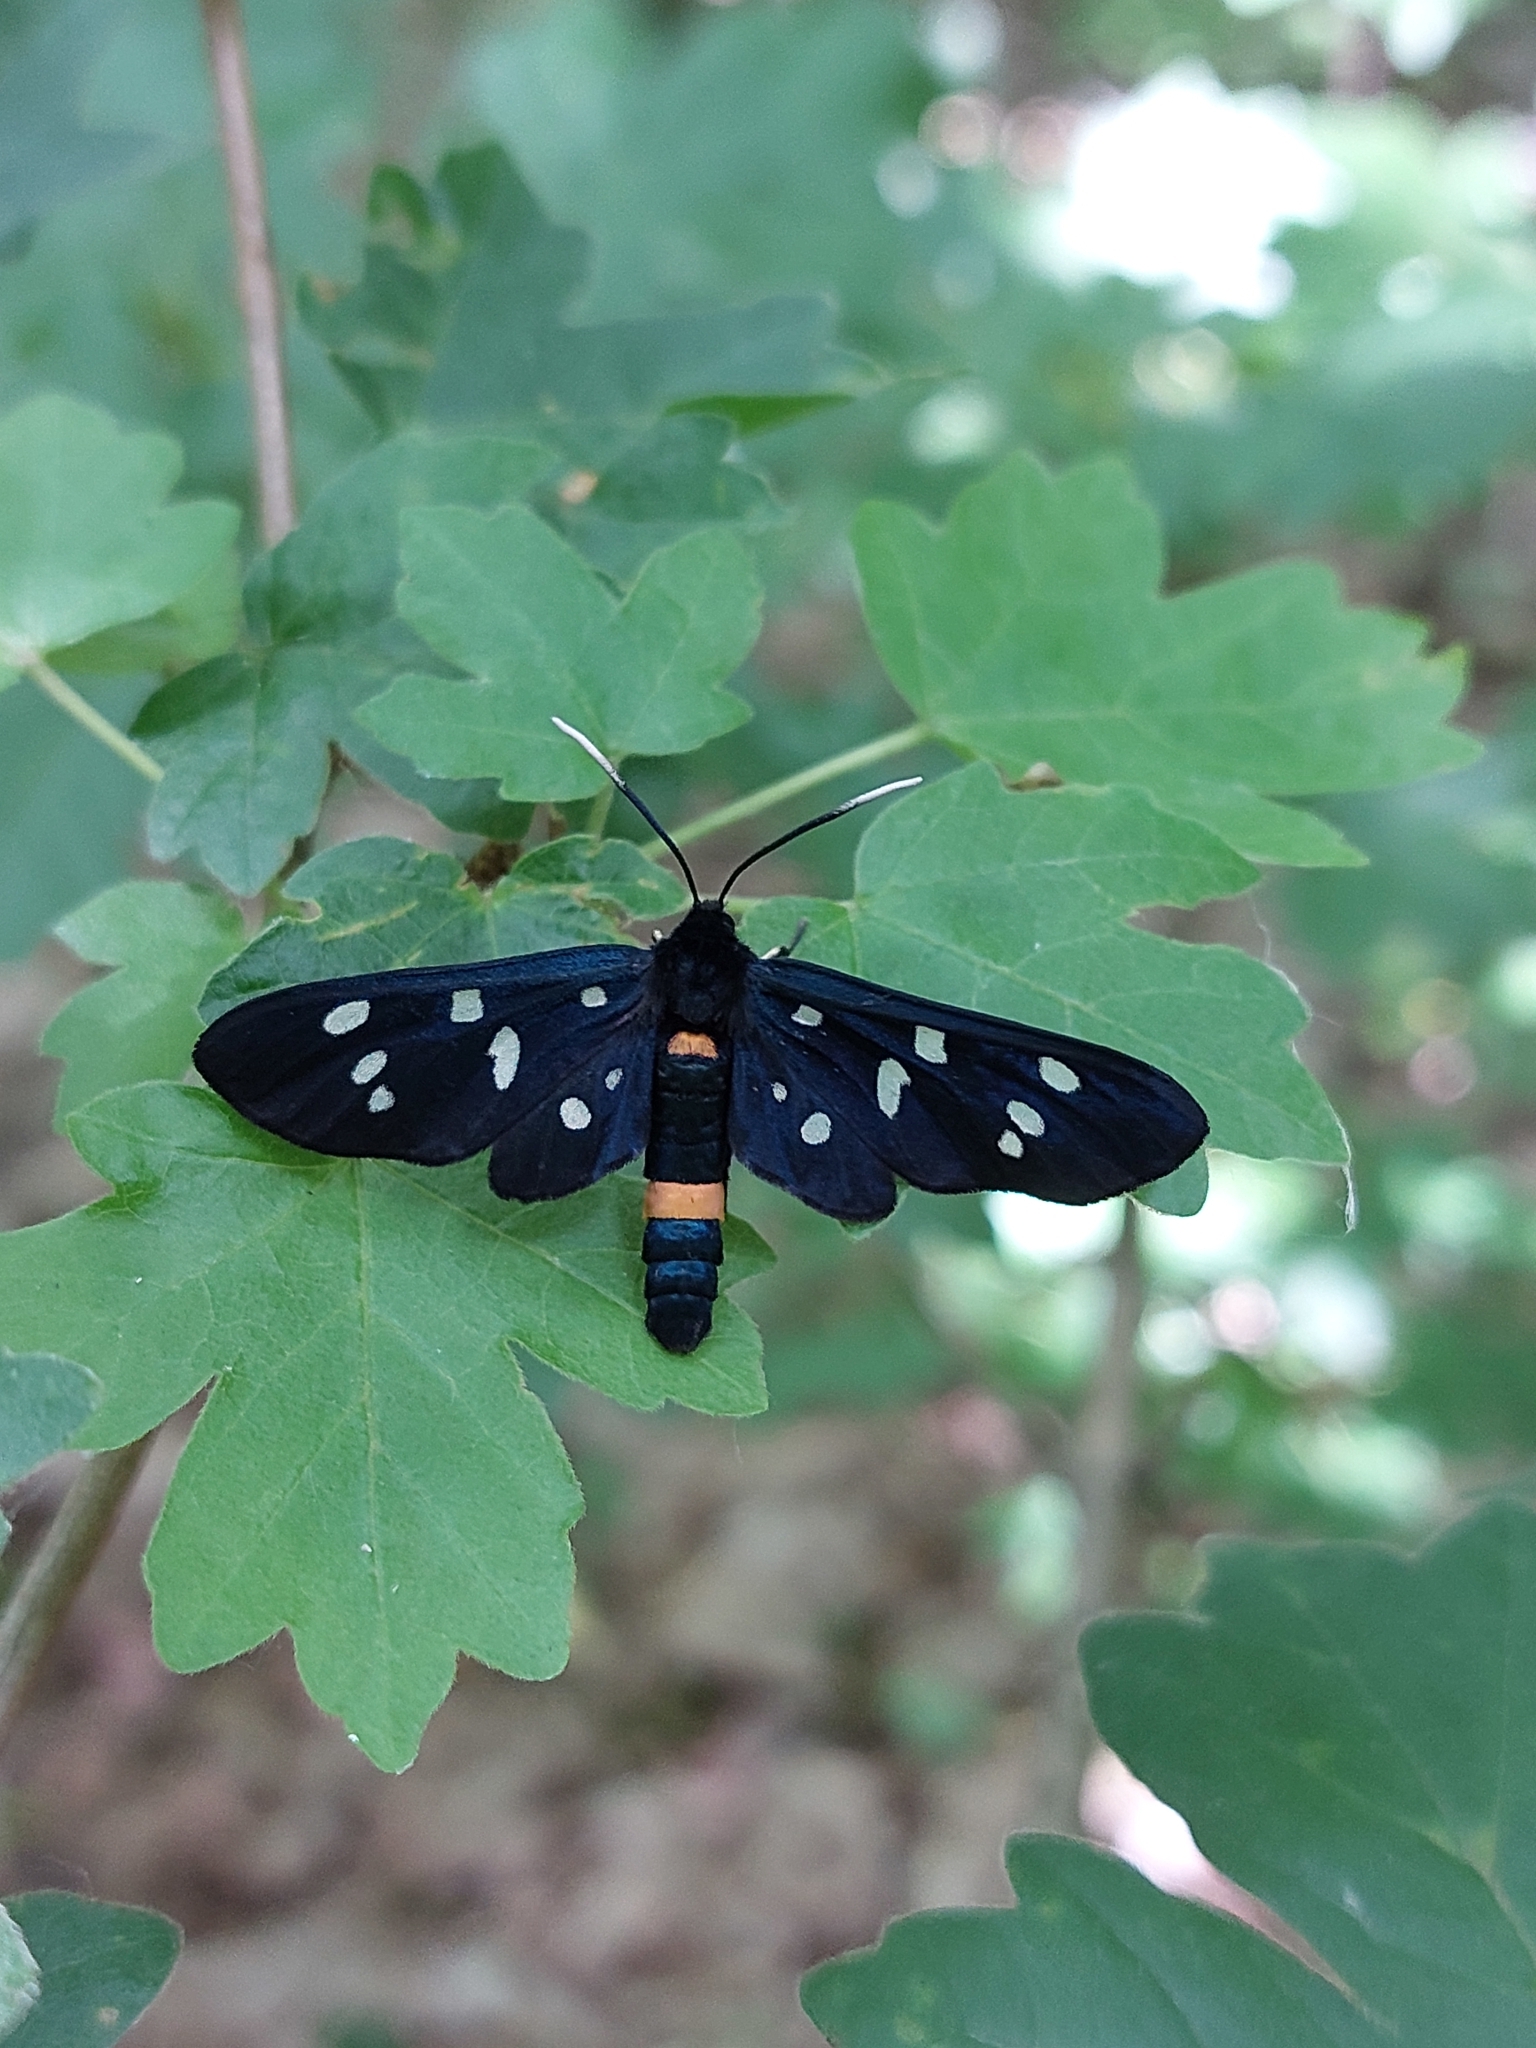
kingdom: Animalia
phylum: Arthropoda
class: Insecta
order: Lepidoptera
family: Erebidae
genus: Amata
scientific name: Amata phegea
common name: Nine-spotted
